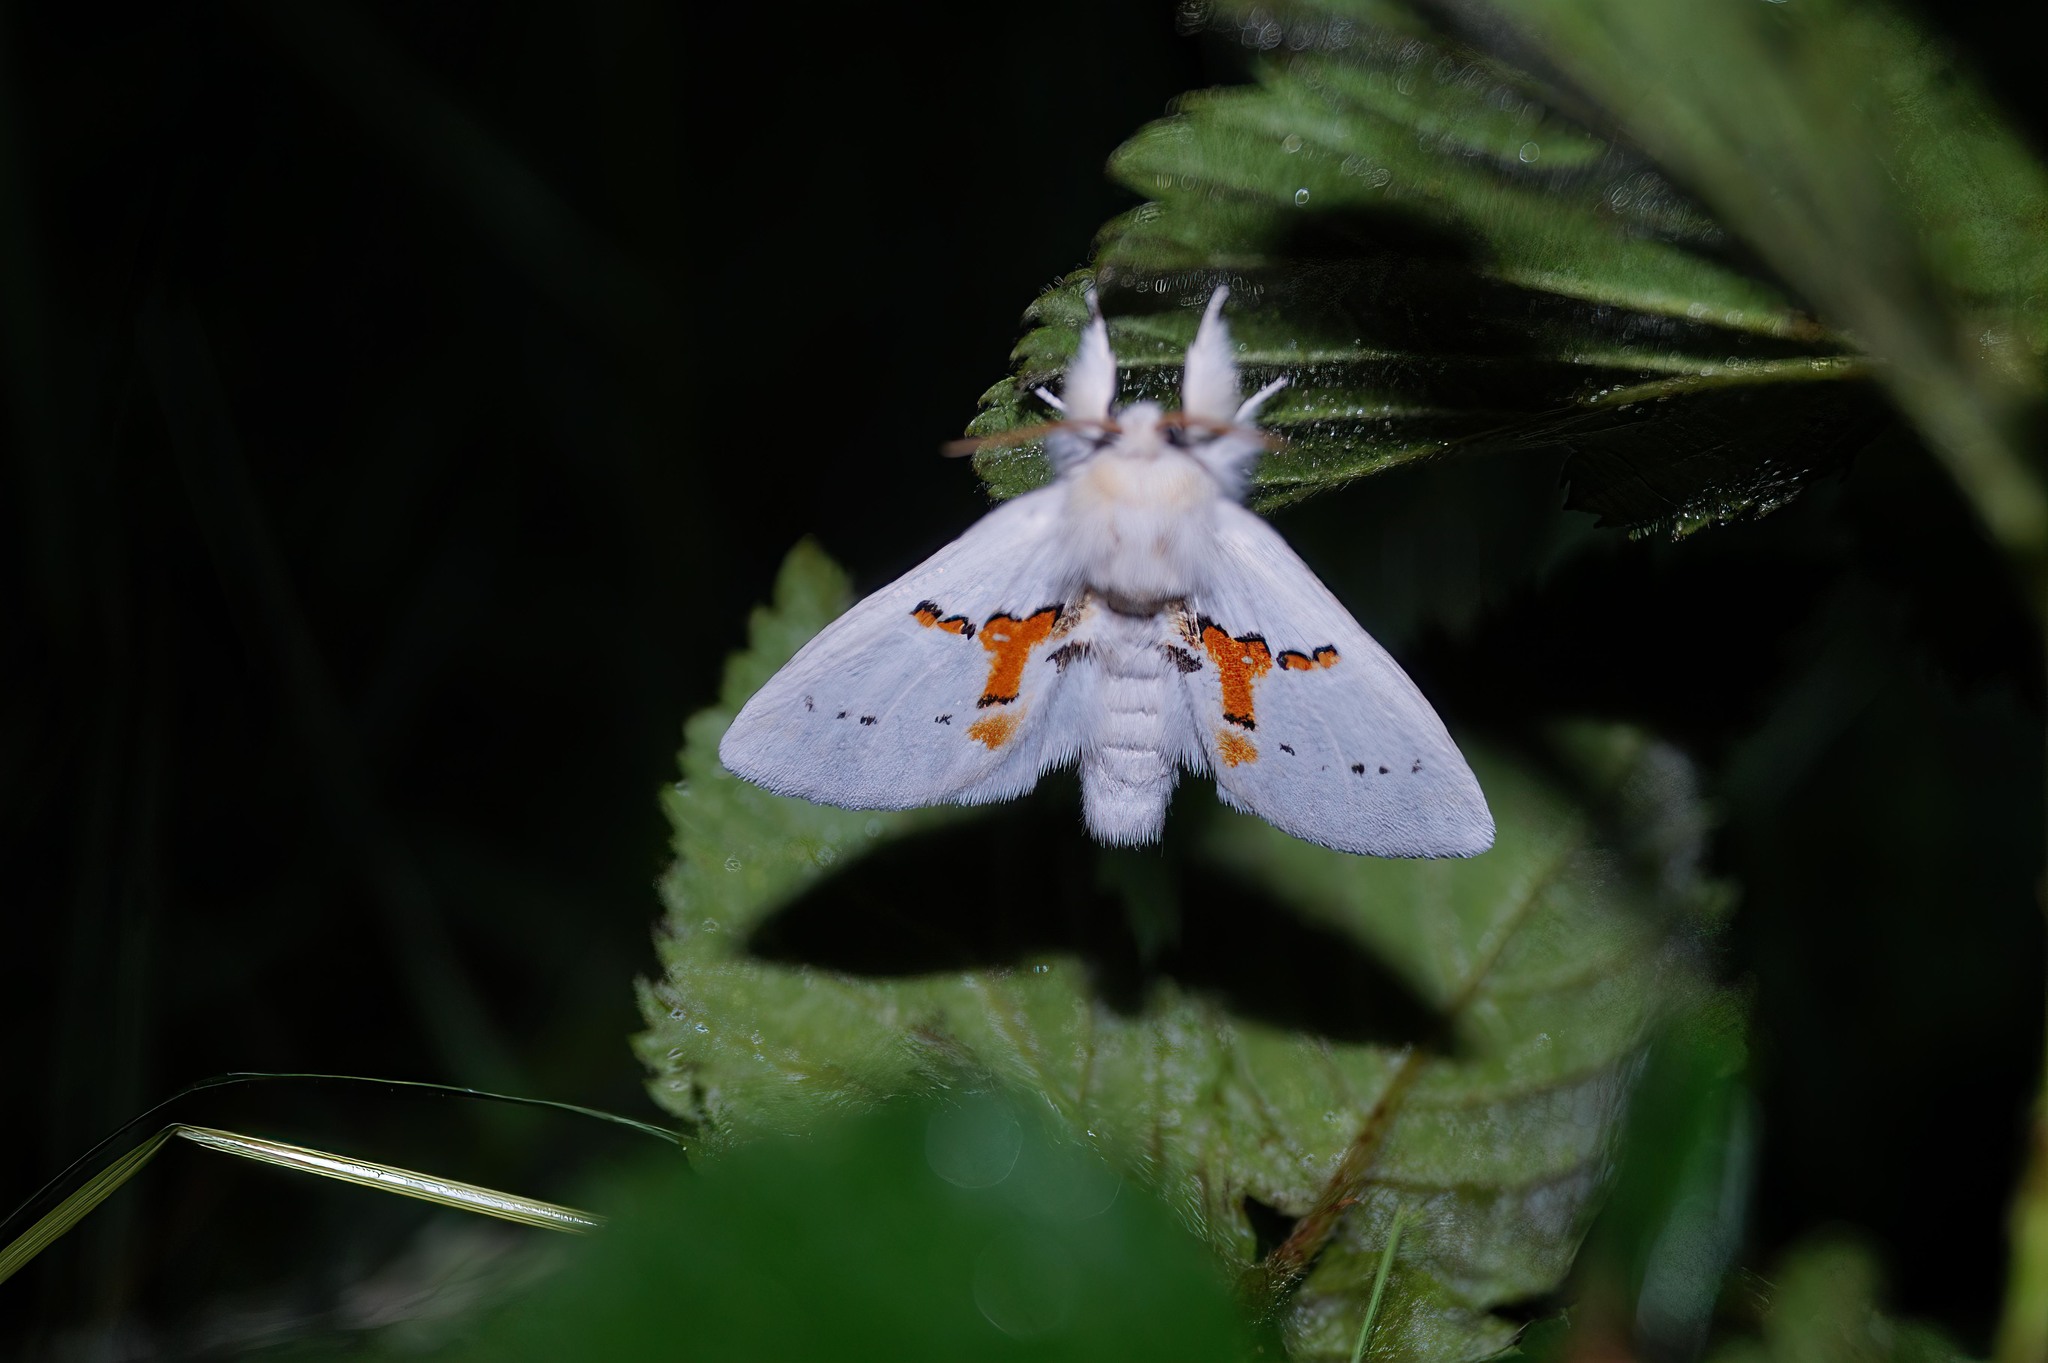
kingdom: Animalia
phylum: Arthropoda
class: Insecta
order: Lepidoptera
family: Notodontidae
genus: Leucodonta
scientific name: Leucodonta bicoloria
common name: White prominent
